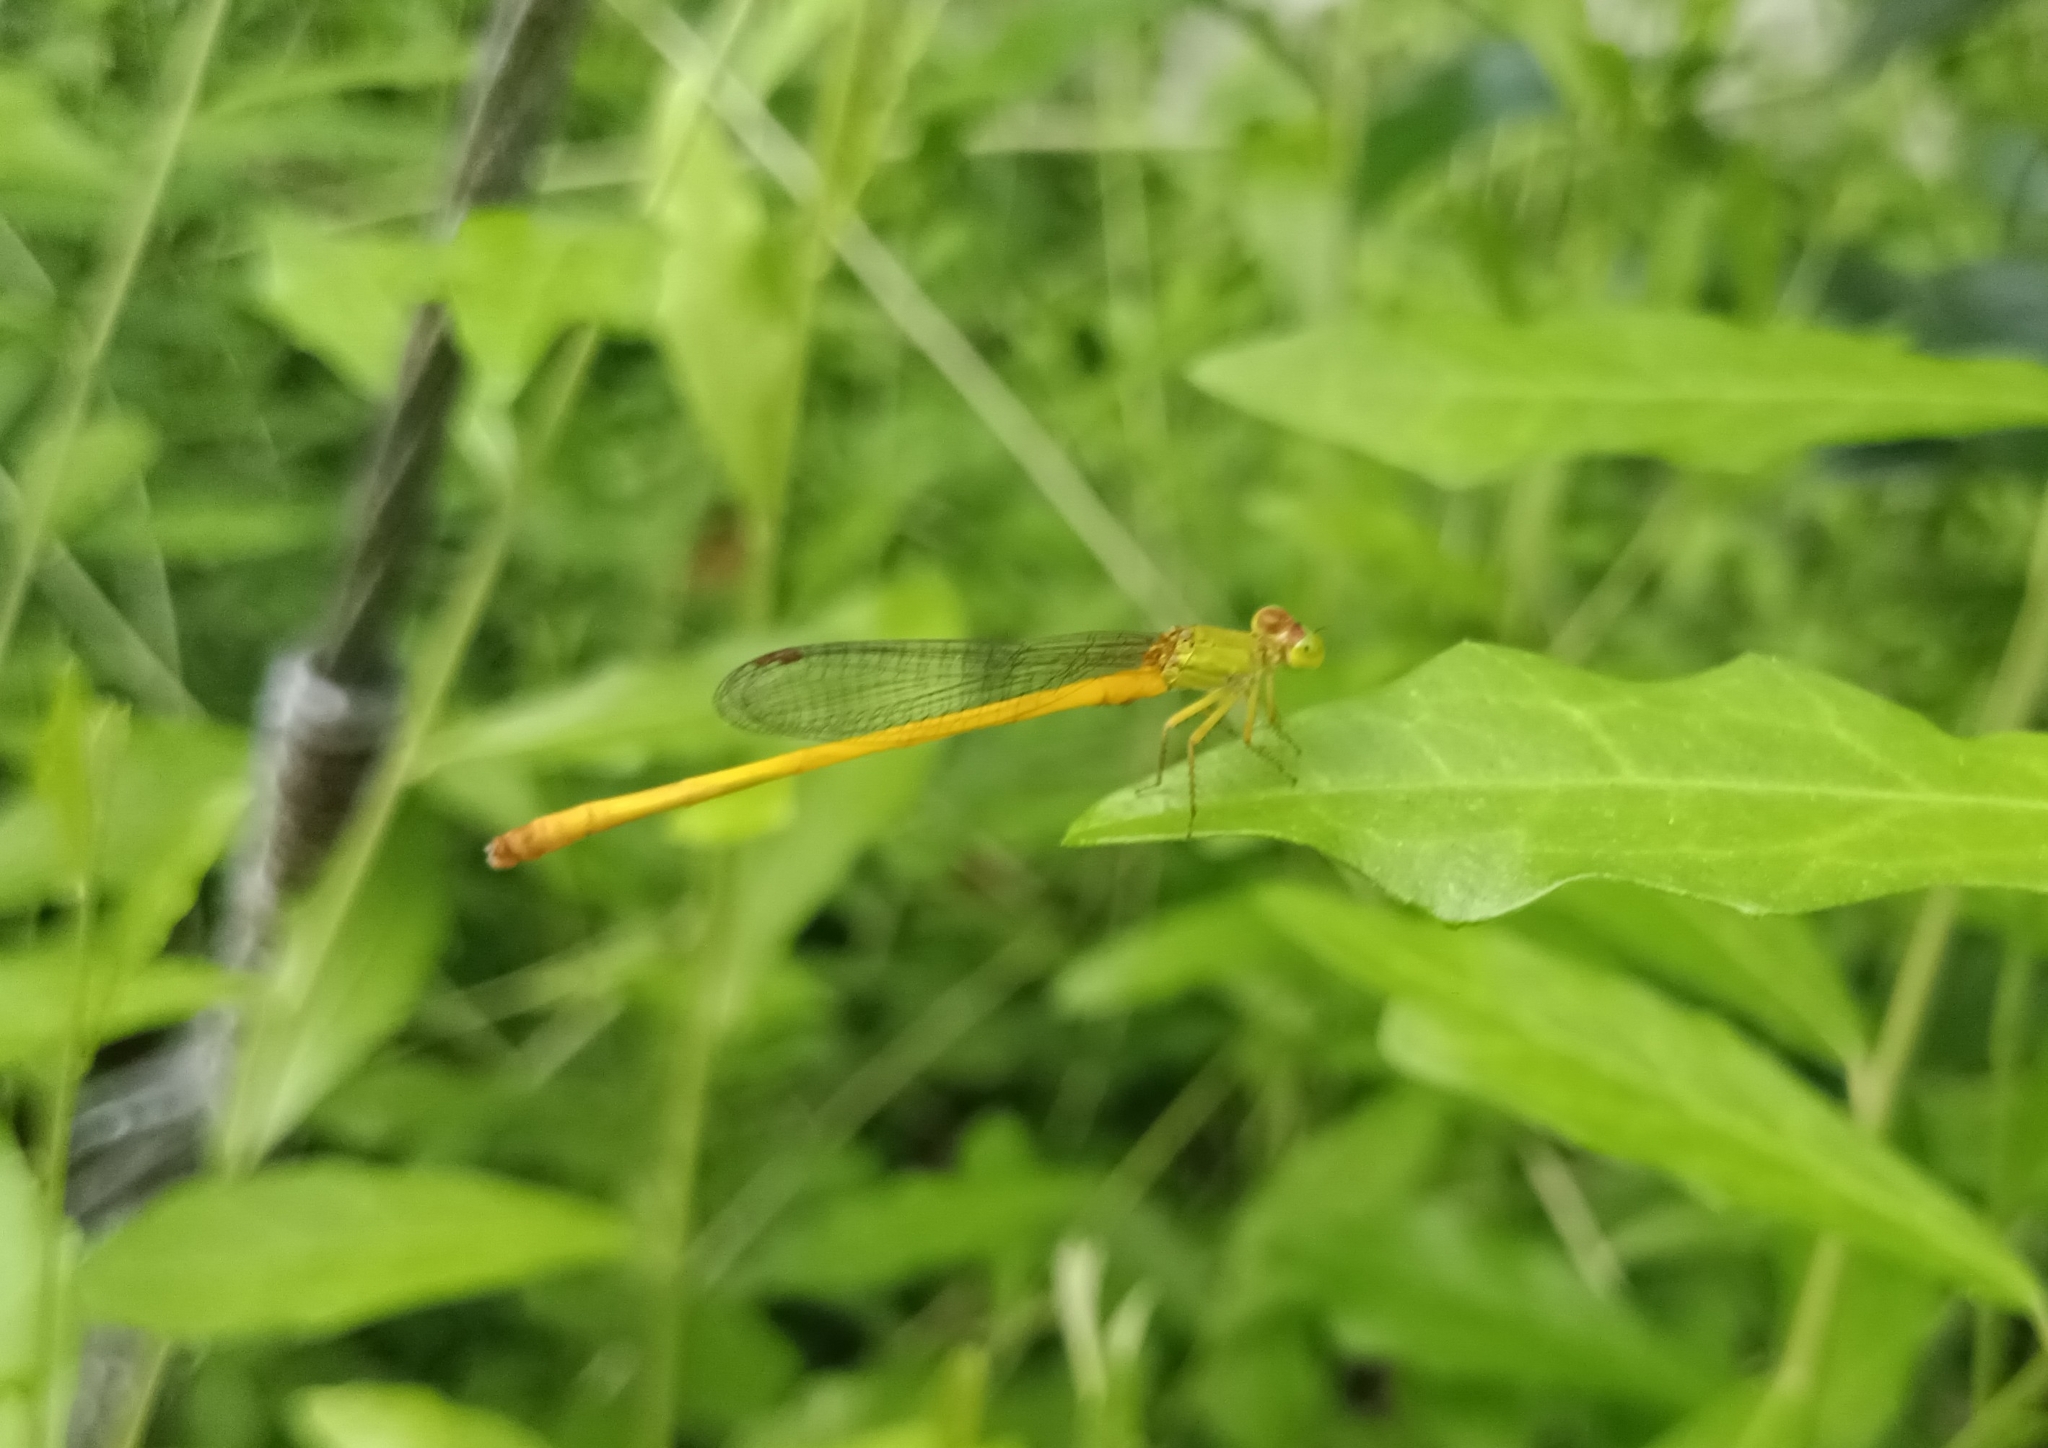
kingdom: Animalia
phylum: Arthropoda
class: Insecta
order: Odonata
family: Coenagrionidae
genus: Ceriagrion
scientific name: Ceriagrion coromandelianum
